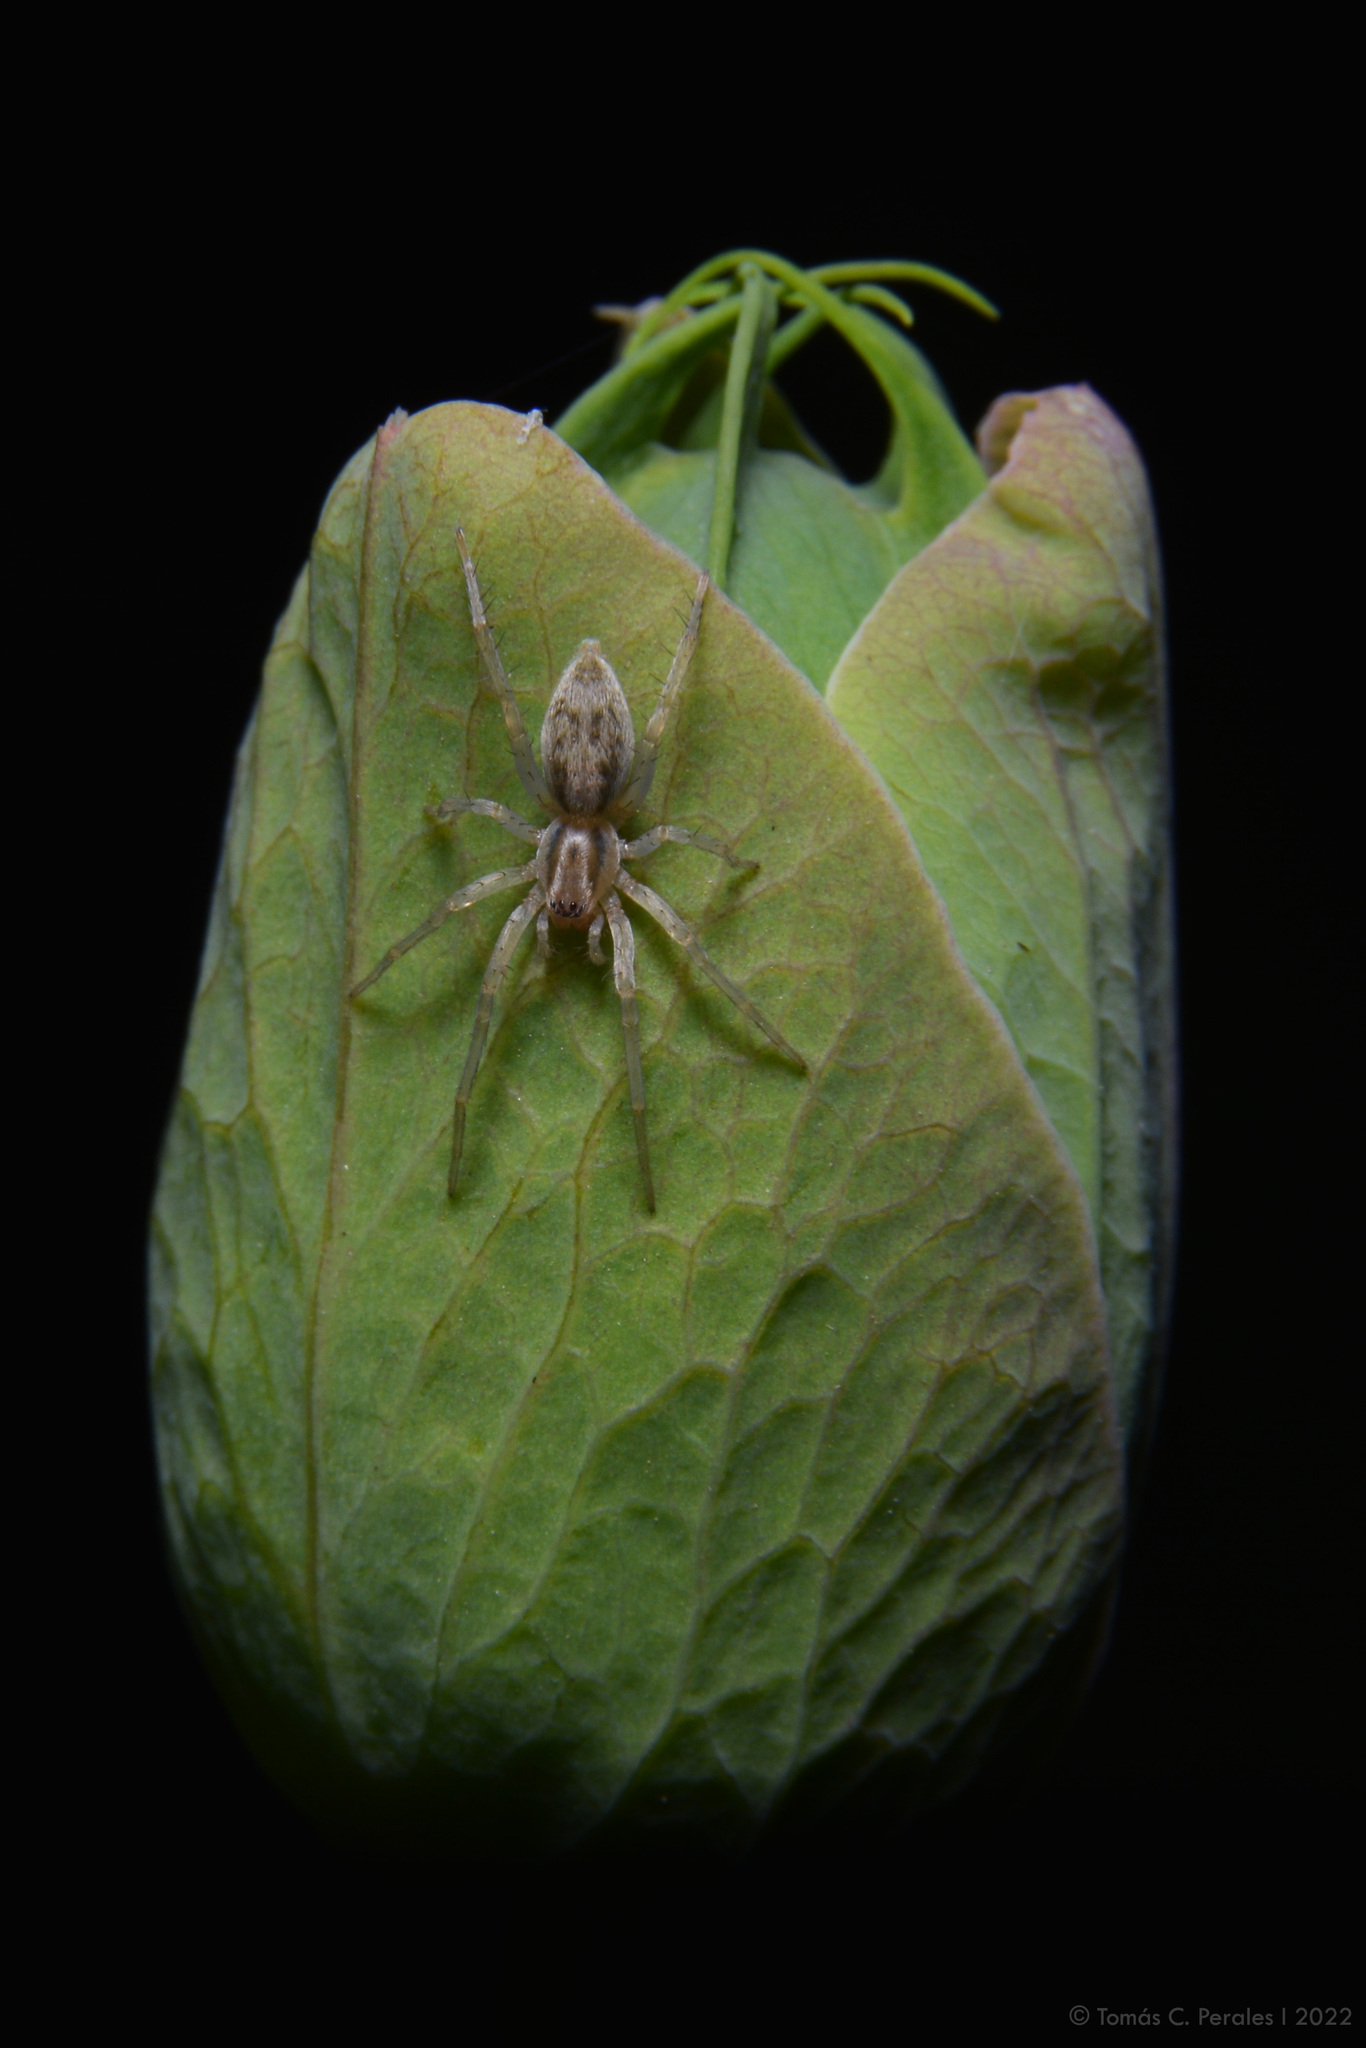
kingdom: Plantae
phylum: Tracheophyta
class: Magnoliopsida
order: Malpighiales
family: Passifloraceae
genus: Passiflora
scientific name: Passiflora caerulea
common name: Blue passionflower
